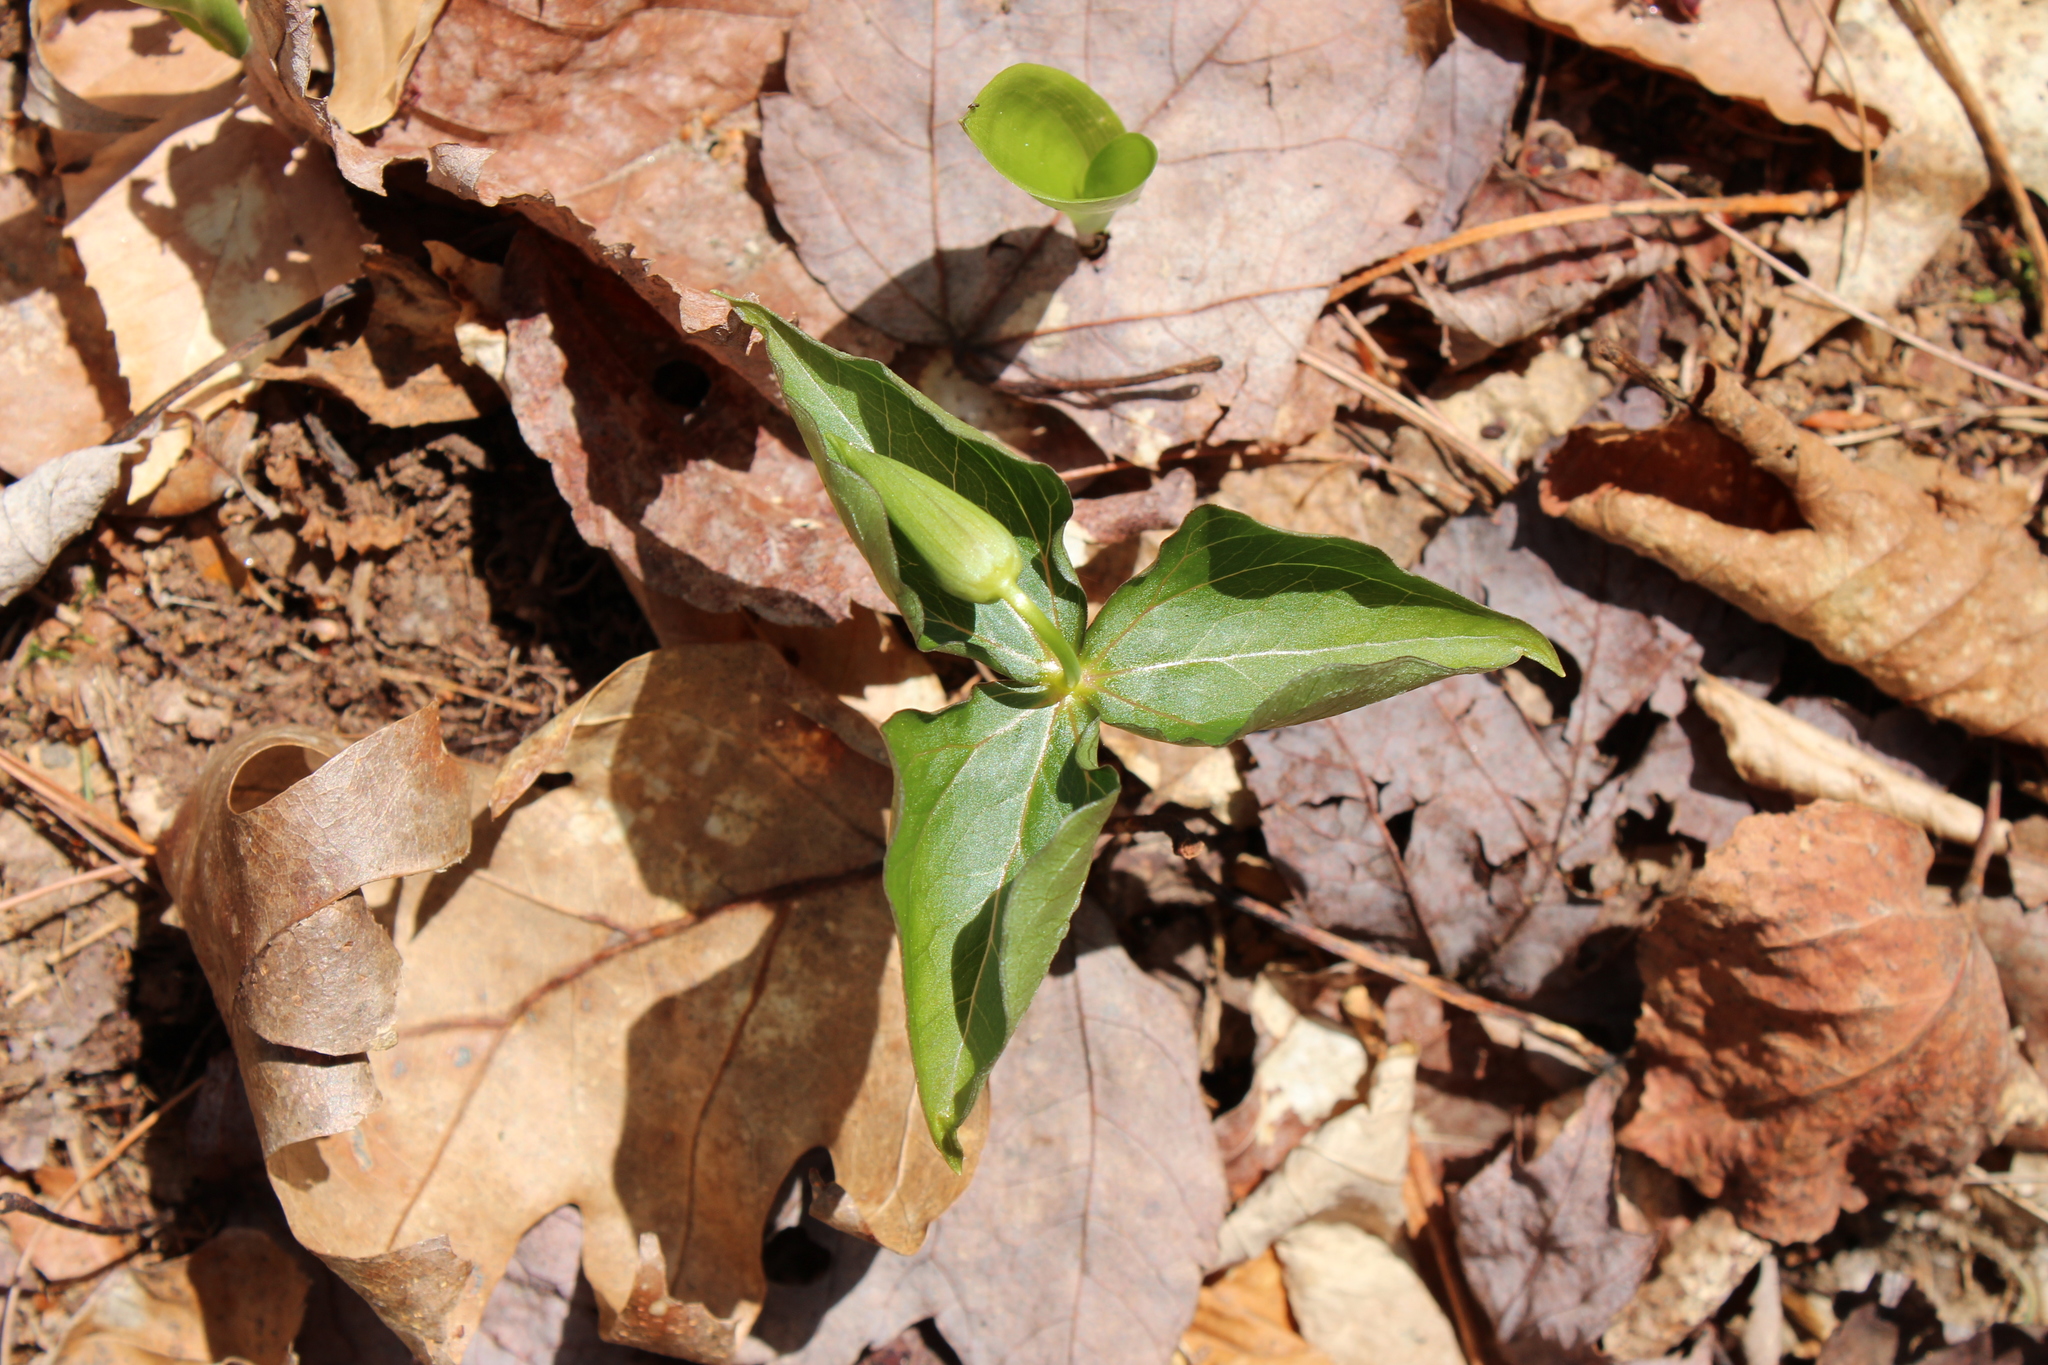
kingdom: Plantae
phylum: Tracheophyta
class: Liliopsida
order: Liliales
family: Melanthiaceae
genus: Trillium
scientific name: Trillium erectum
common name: Purple trillium
